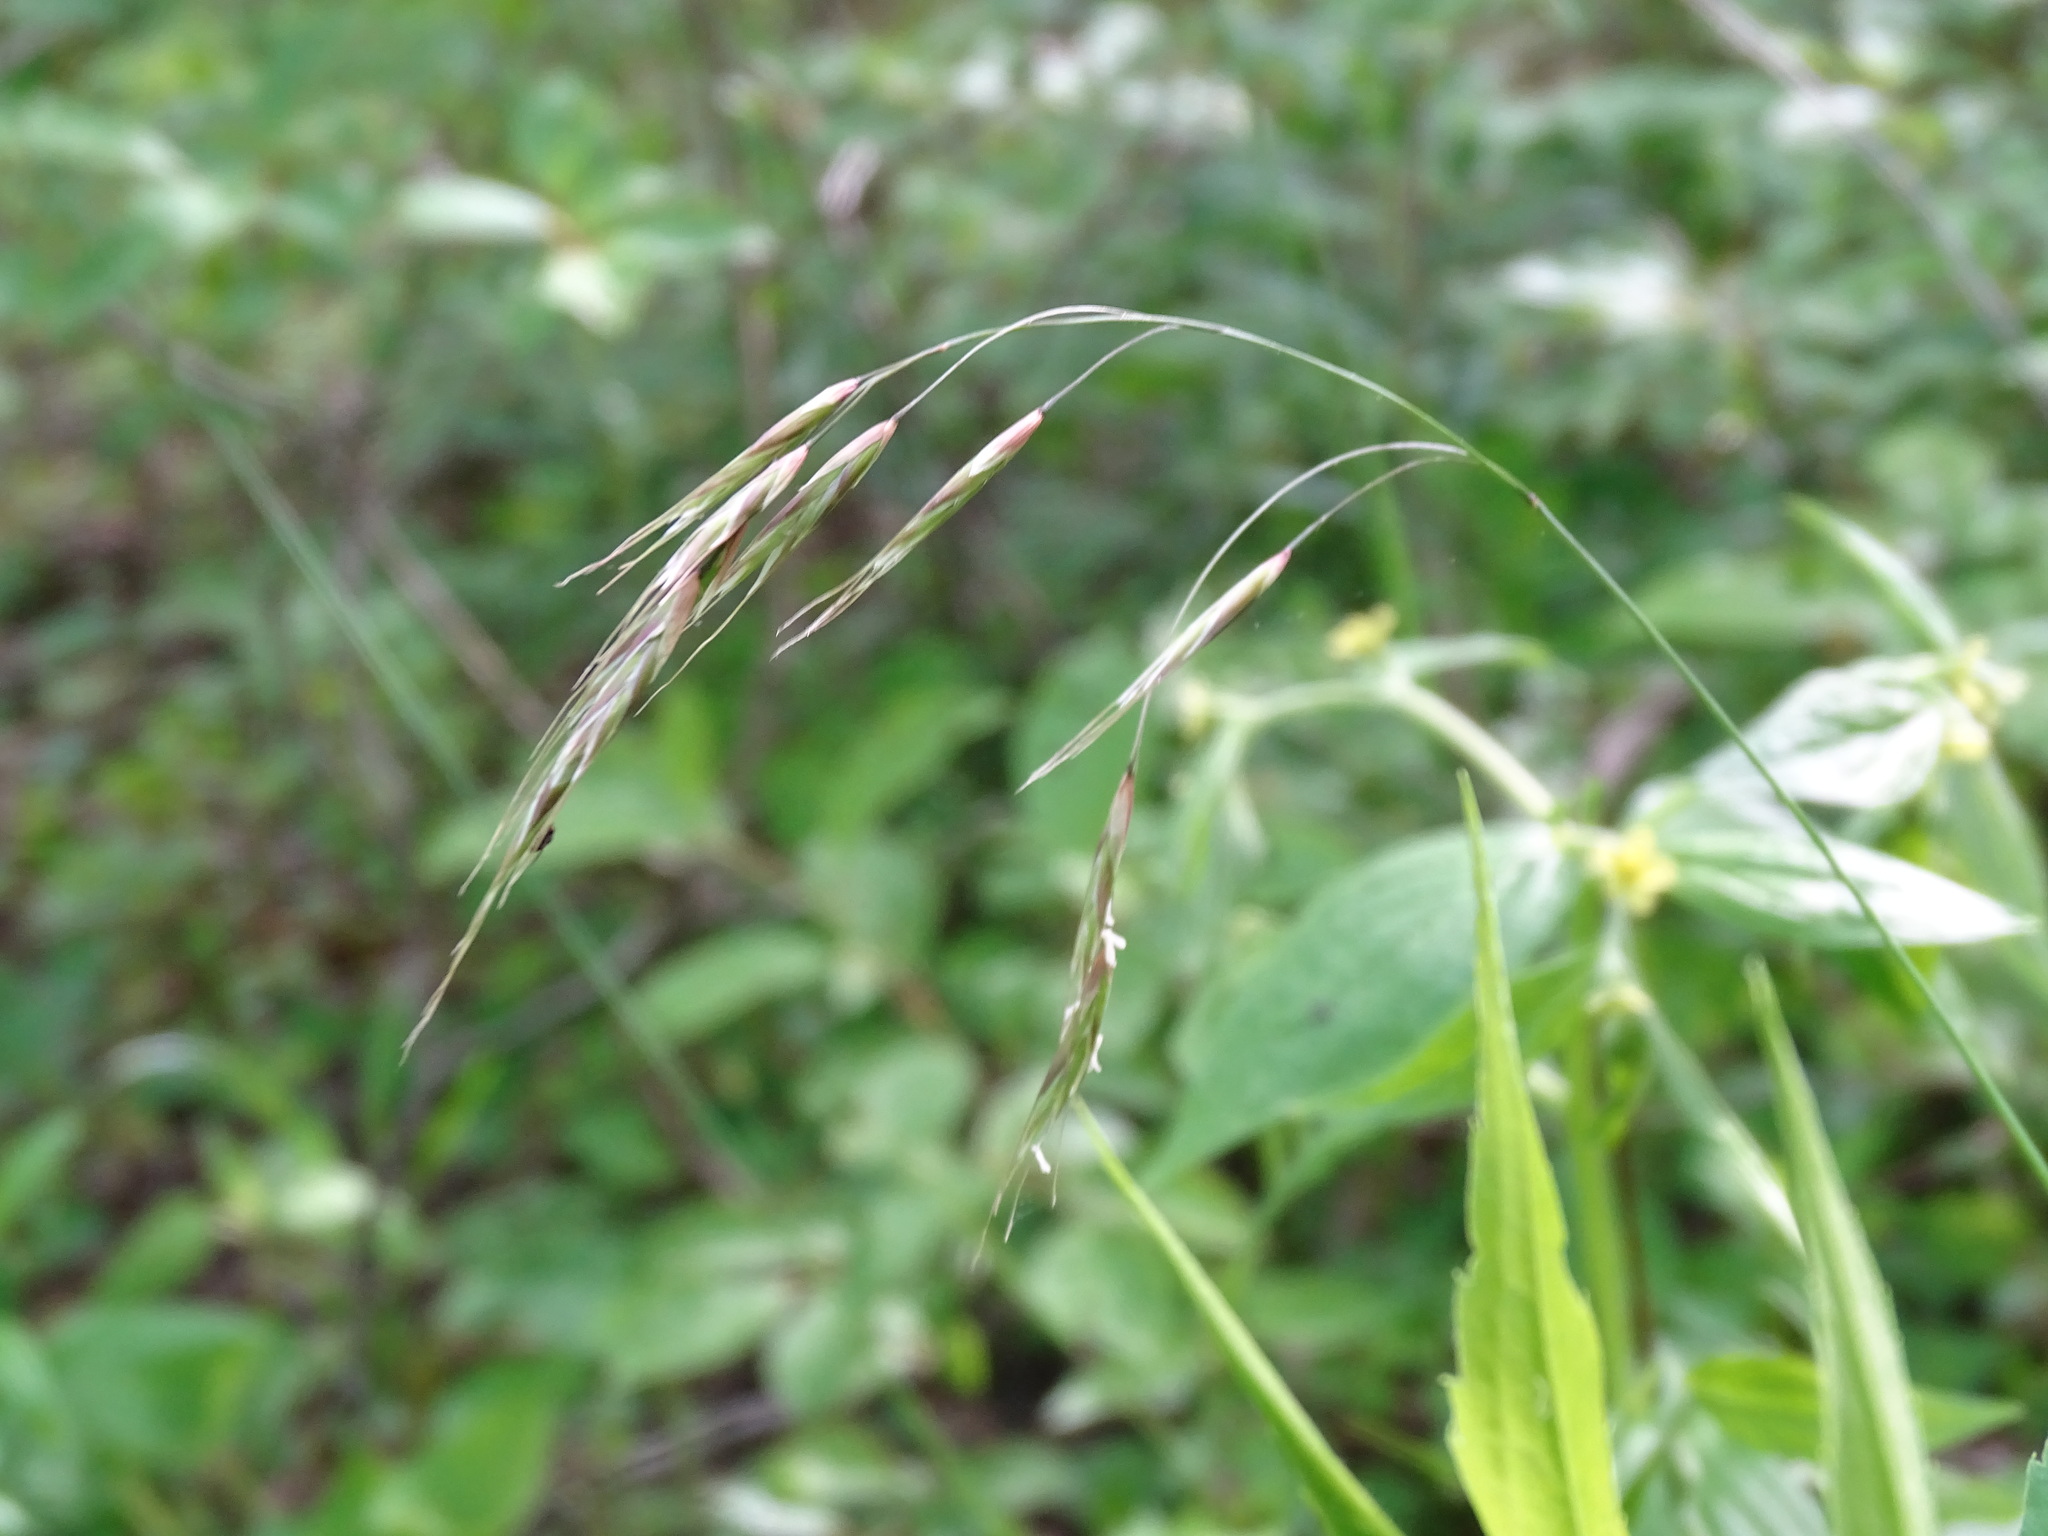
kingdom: Plantae
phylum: Tracheophyta
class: Liliopsida
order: Poales
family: Poaceae
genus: Schizachne
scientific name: Schizachne purpurascens
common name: False melic
